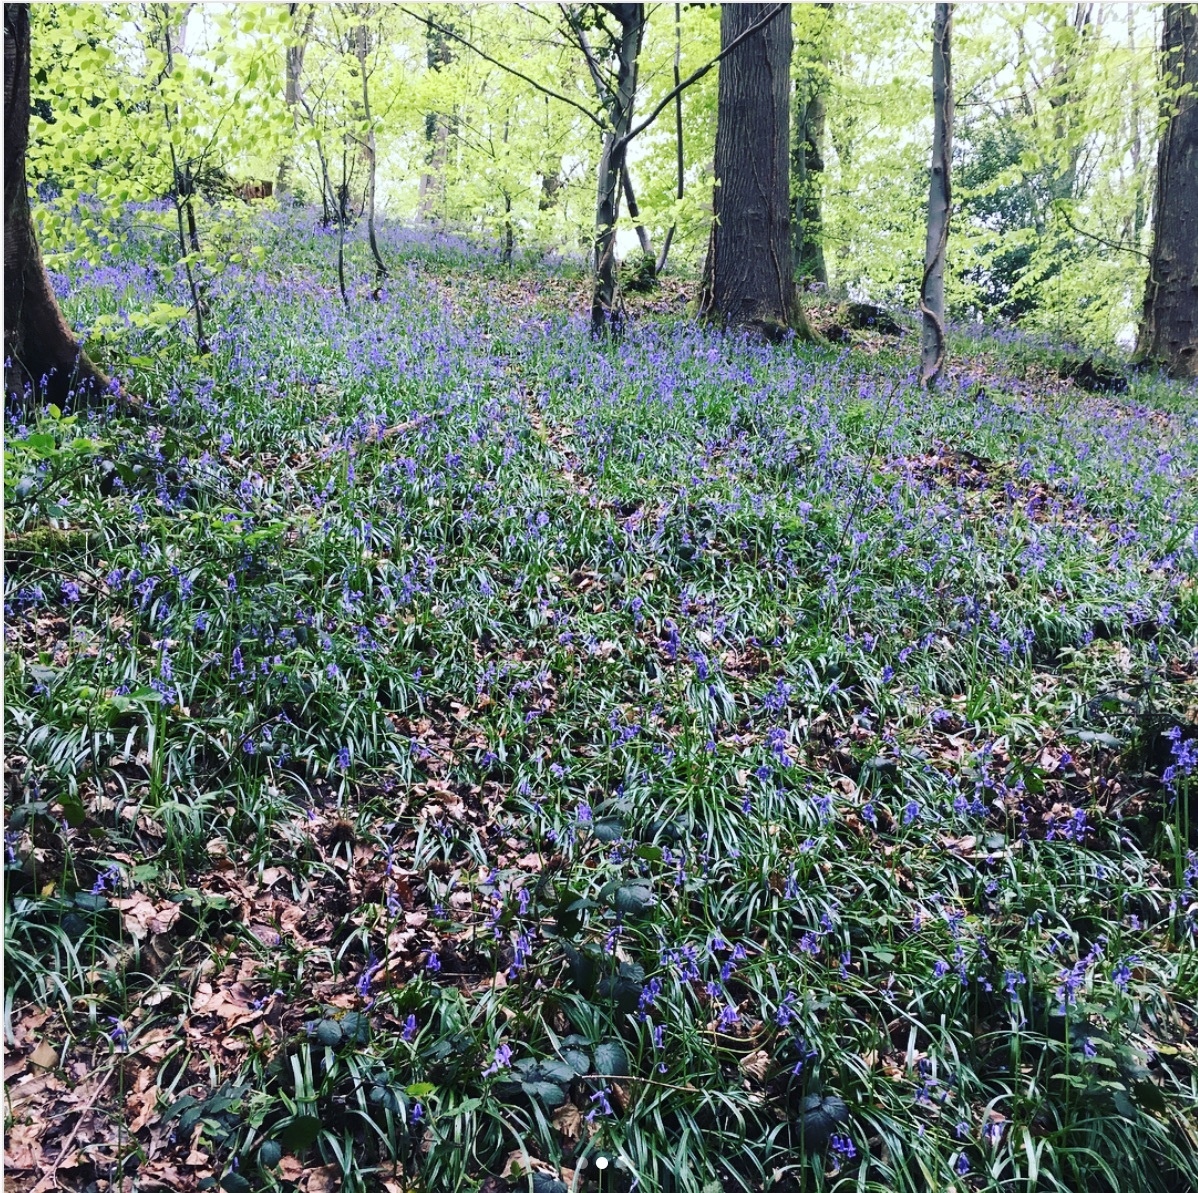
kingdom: Plantae
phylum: Tracheophyta
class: Liliopsida
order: Asparagales
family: Asparagaceae
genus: Hyacinthoides
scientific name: Hyacinthoides non-scripta
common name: Bluebell
